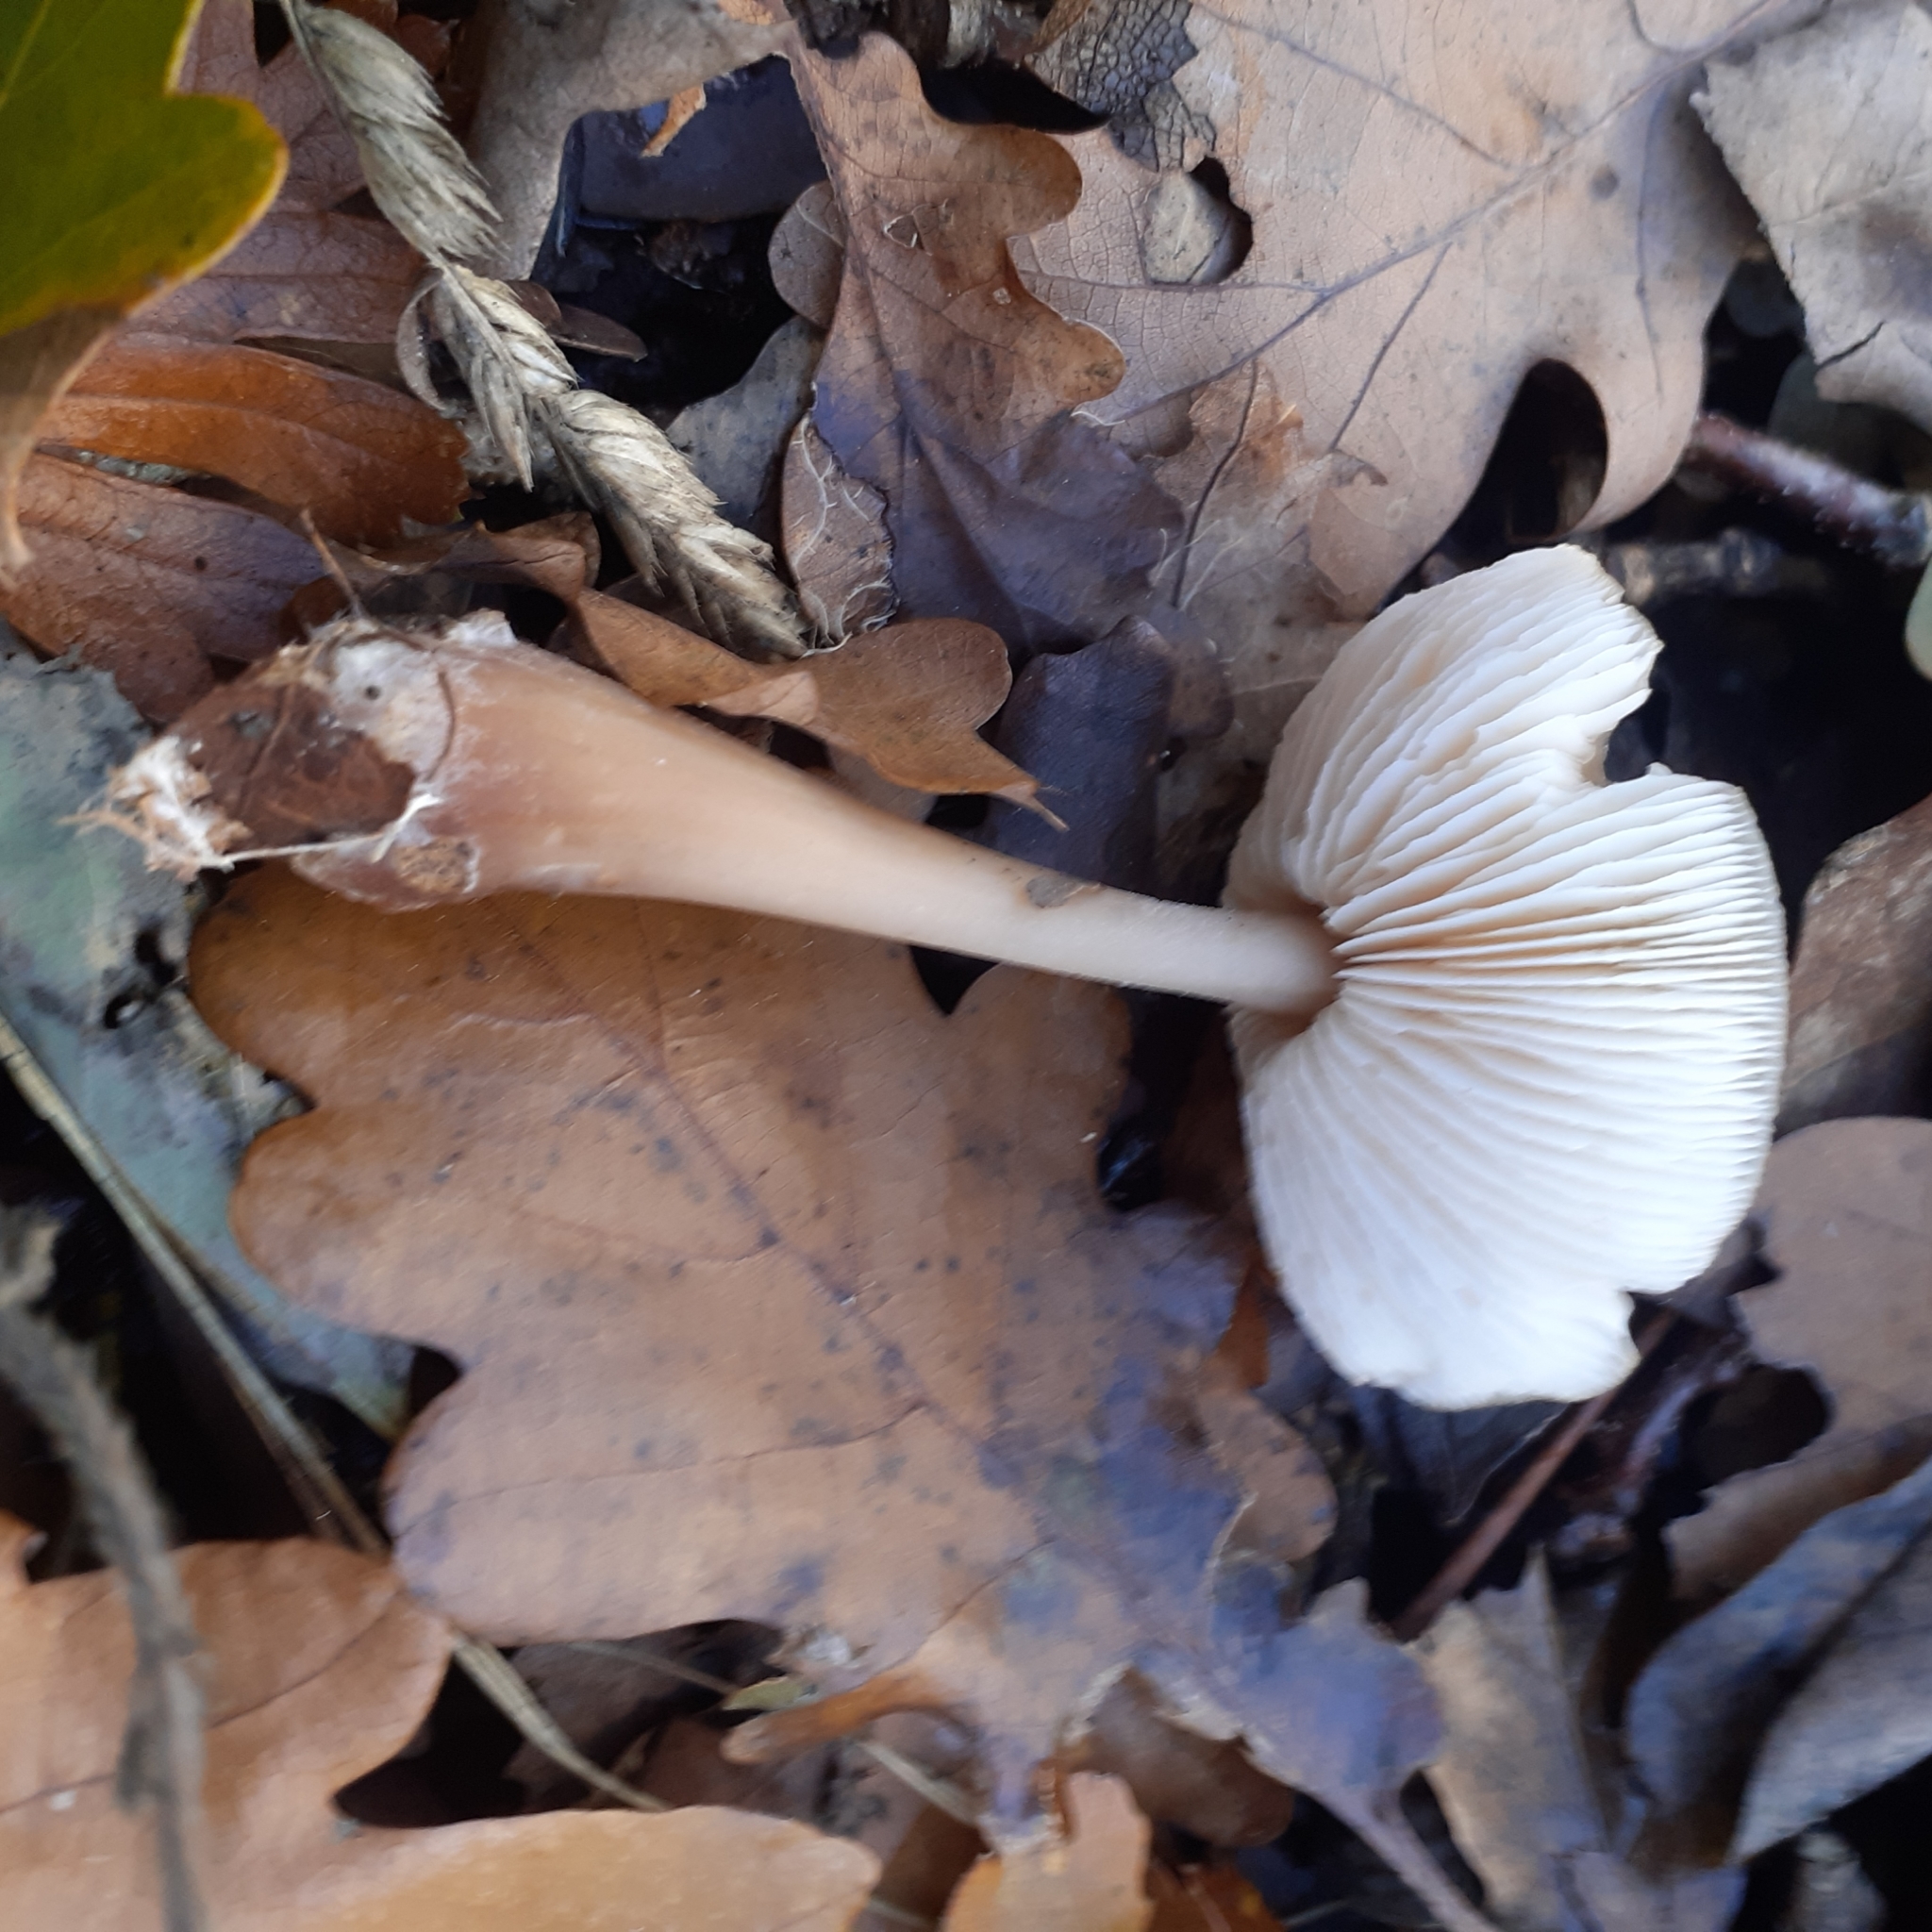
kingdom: Fungi
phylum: Basidiomycota
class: Agaricomycetes
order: Agaricales
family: Omphalotaceae
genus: Rhodocollybia
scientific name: Rhodocollybia butyracea
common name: Butter cap
